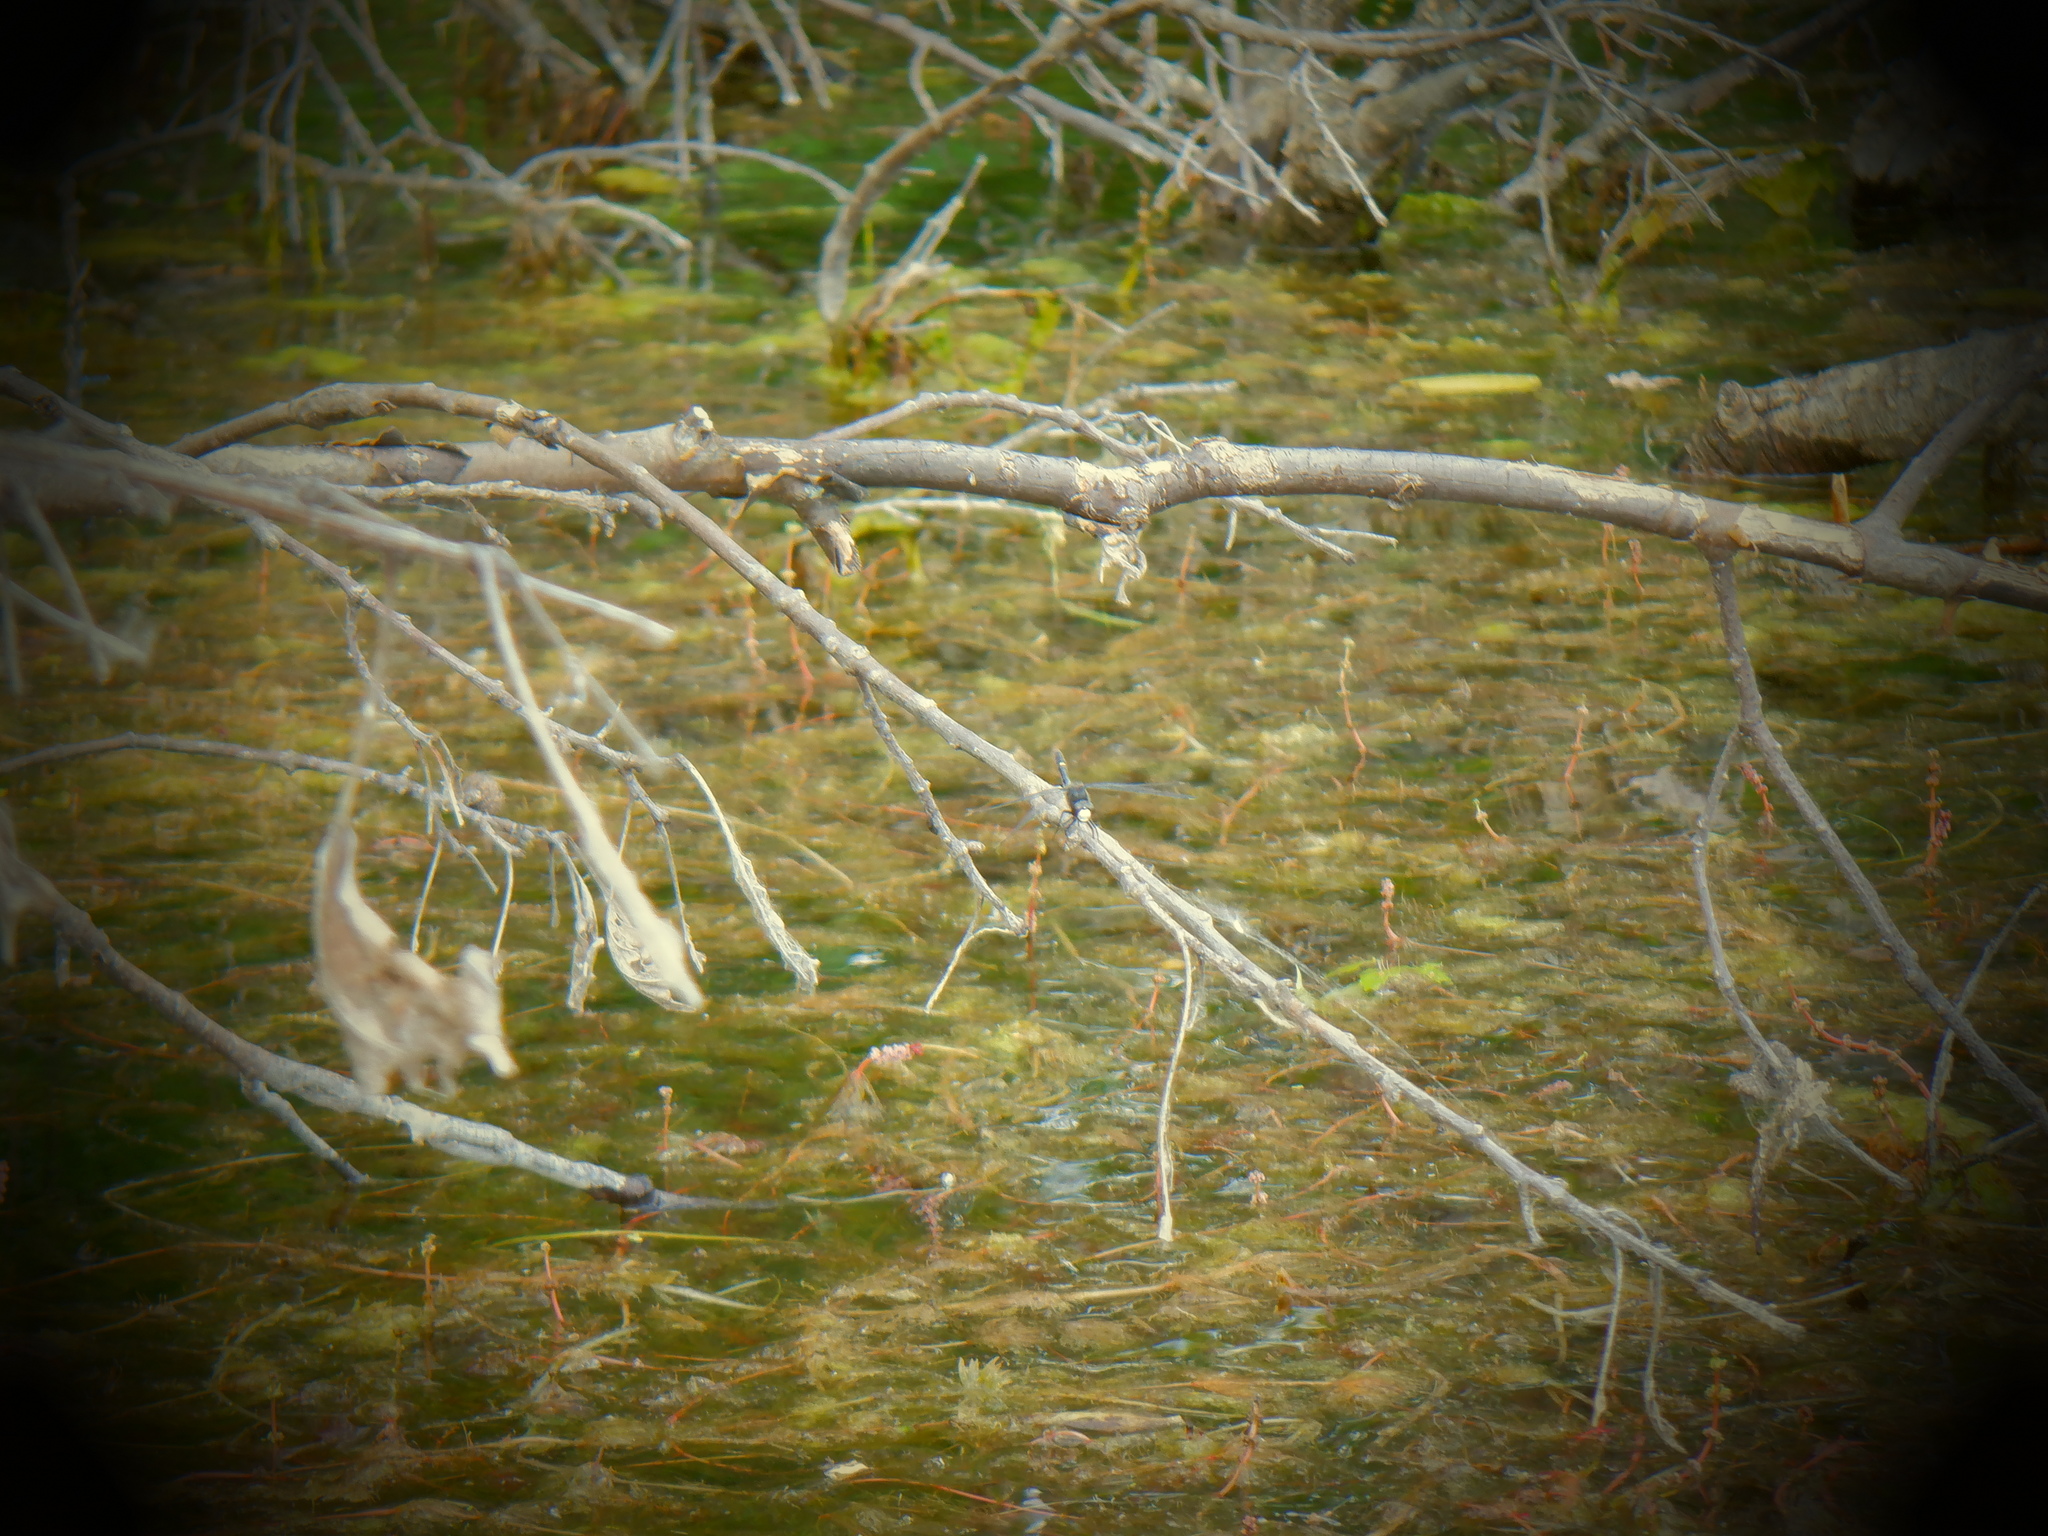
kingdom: Animalia
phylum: Arthropoda
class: Insecta
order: Odonata
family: Libellulidae
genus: Leucorrhinia
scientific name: Leucorrhinia intacta
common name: Dot-tailed whiteface
